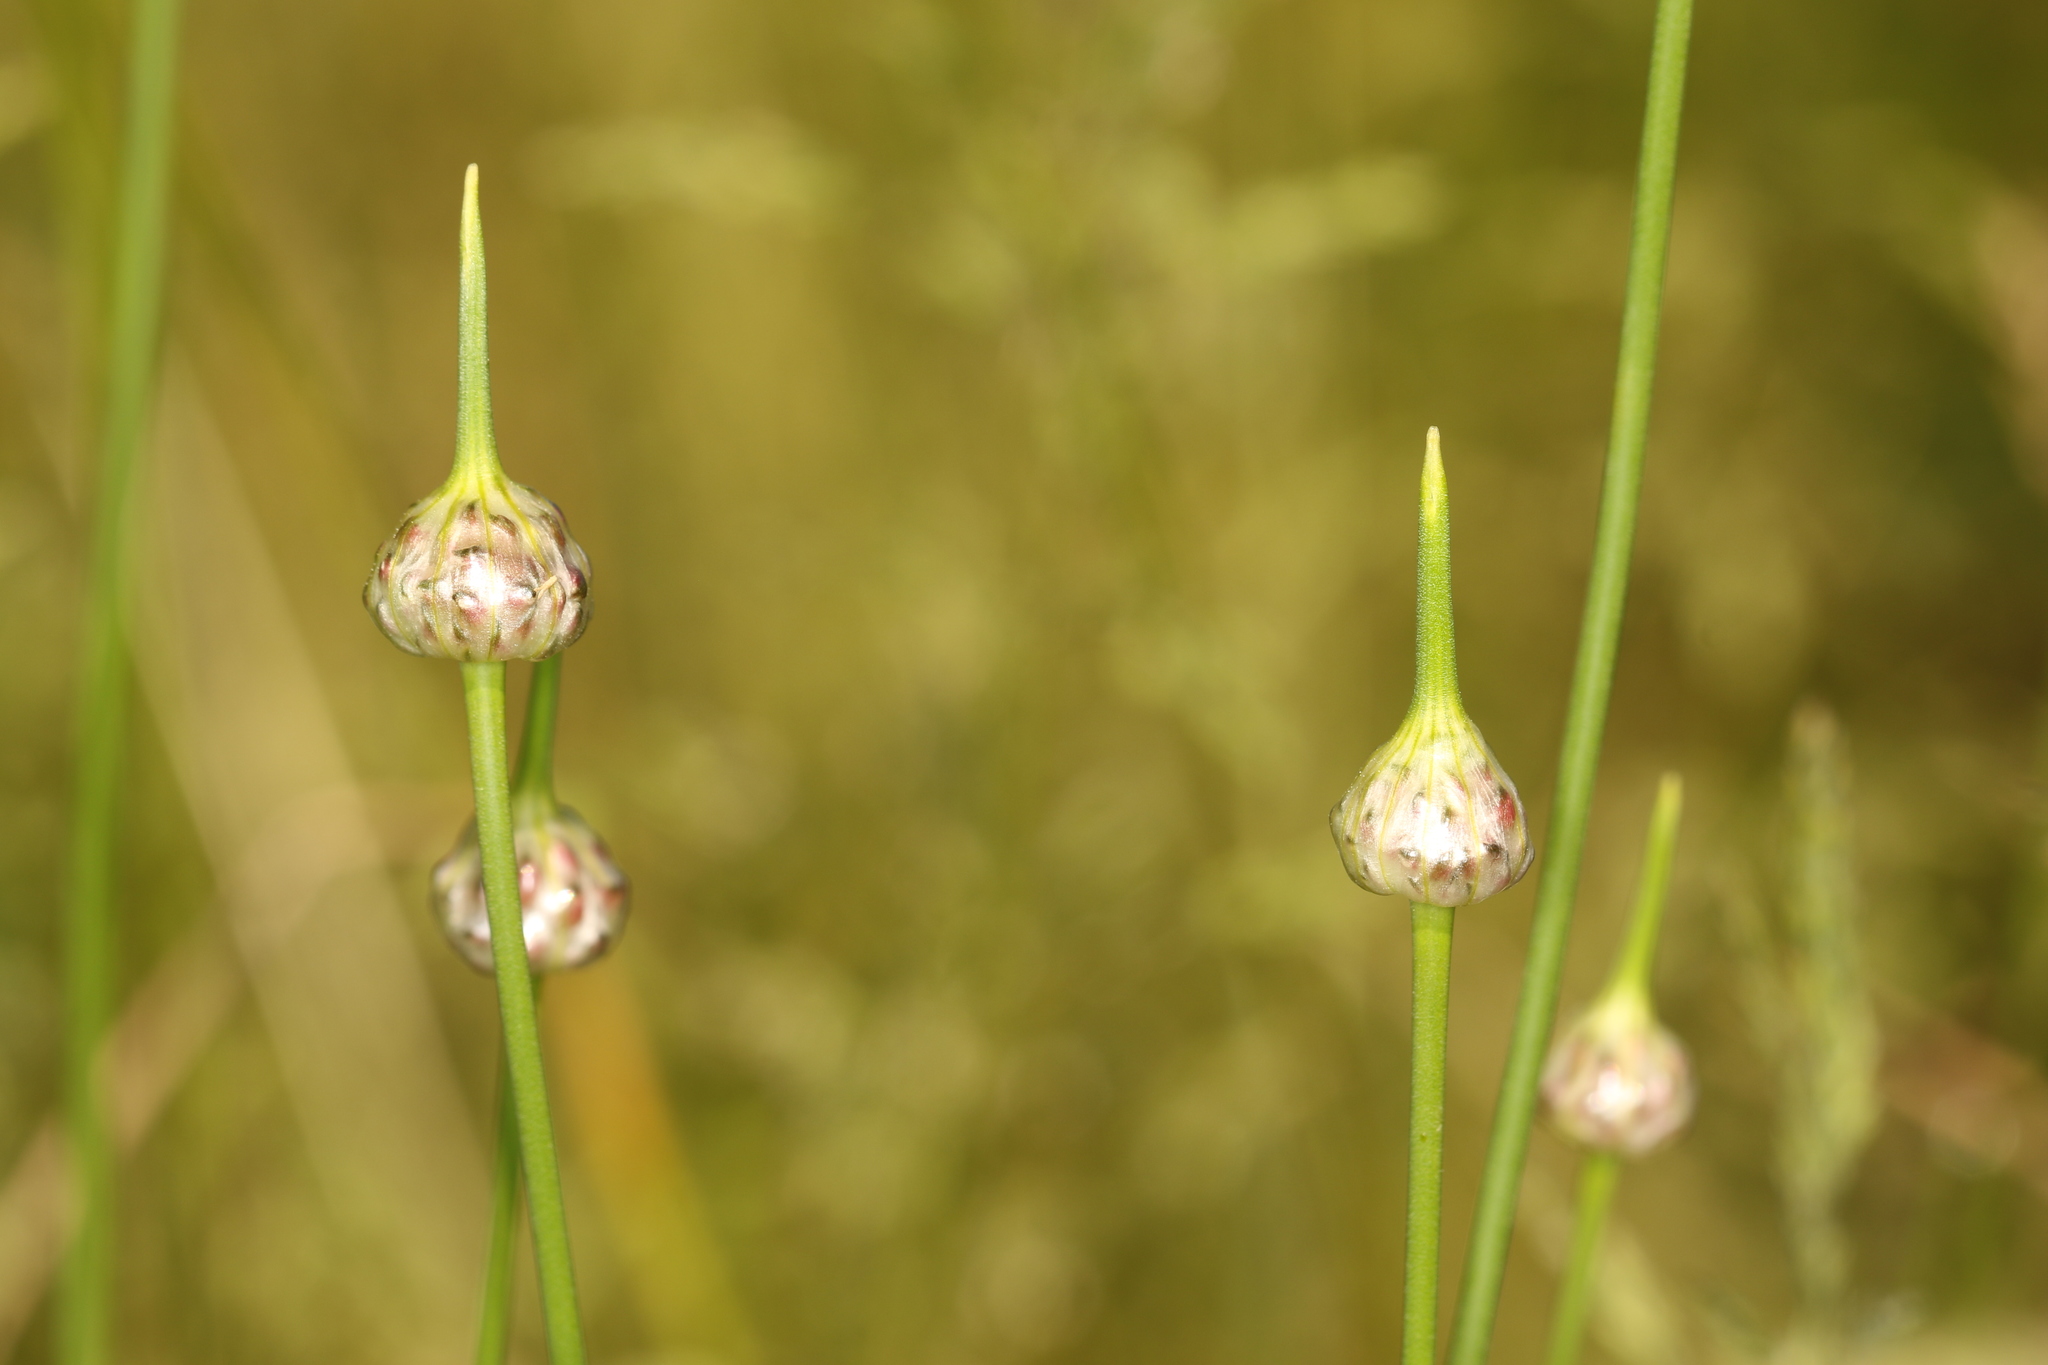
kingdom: Plantae
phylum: Tracheophyta
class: Liliopsida
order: Asparagales
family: Amaryllidaceae
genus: Allium
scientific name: Allium scorodoprasum
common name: Sand leek
